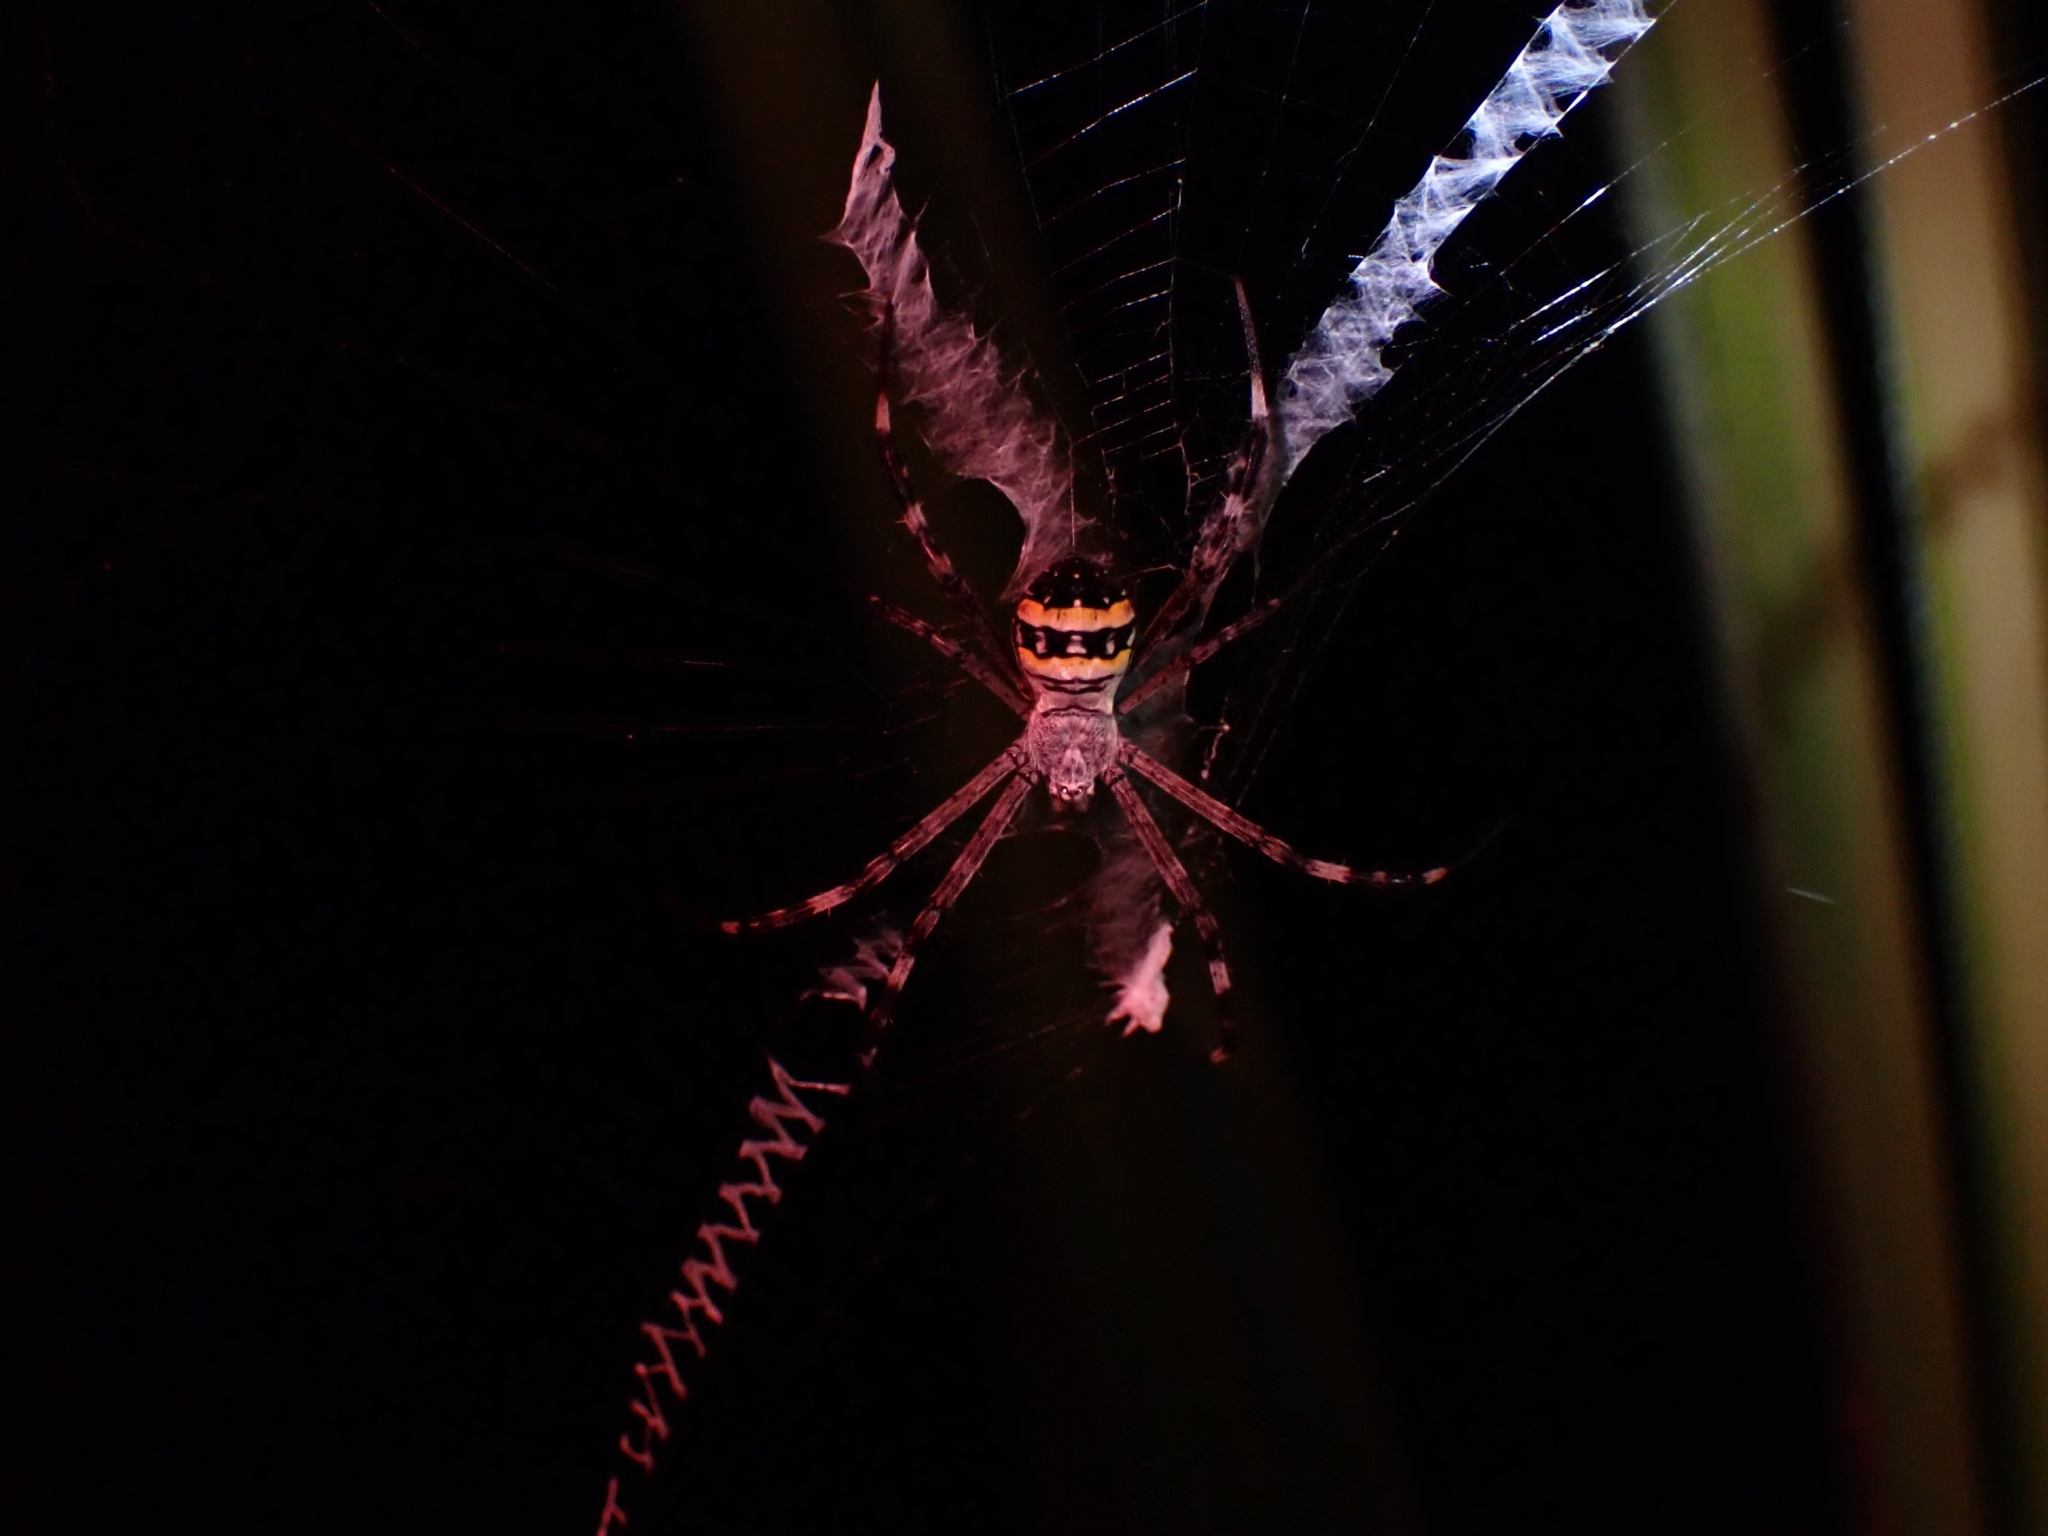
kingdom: Animalia
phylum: Arthropoda
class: Arachnida
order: Araneae
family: Araneidae
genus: Argiope
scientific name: Argiope caledonia
